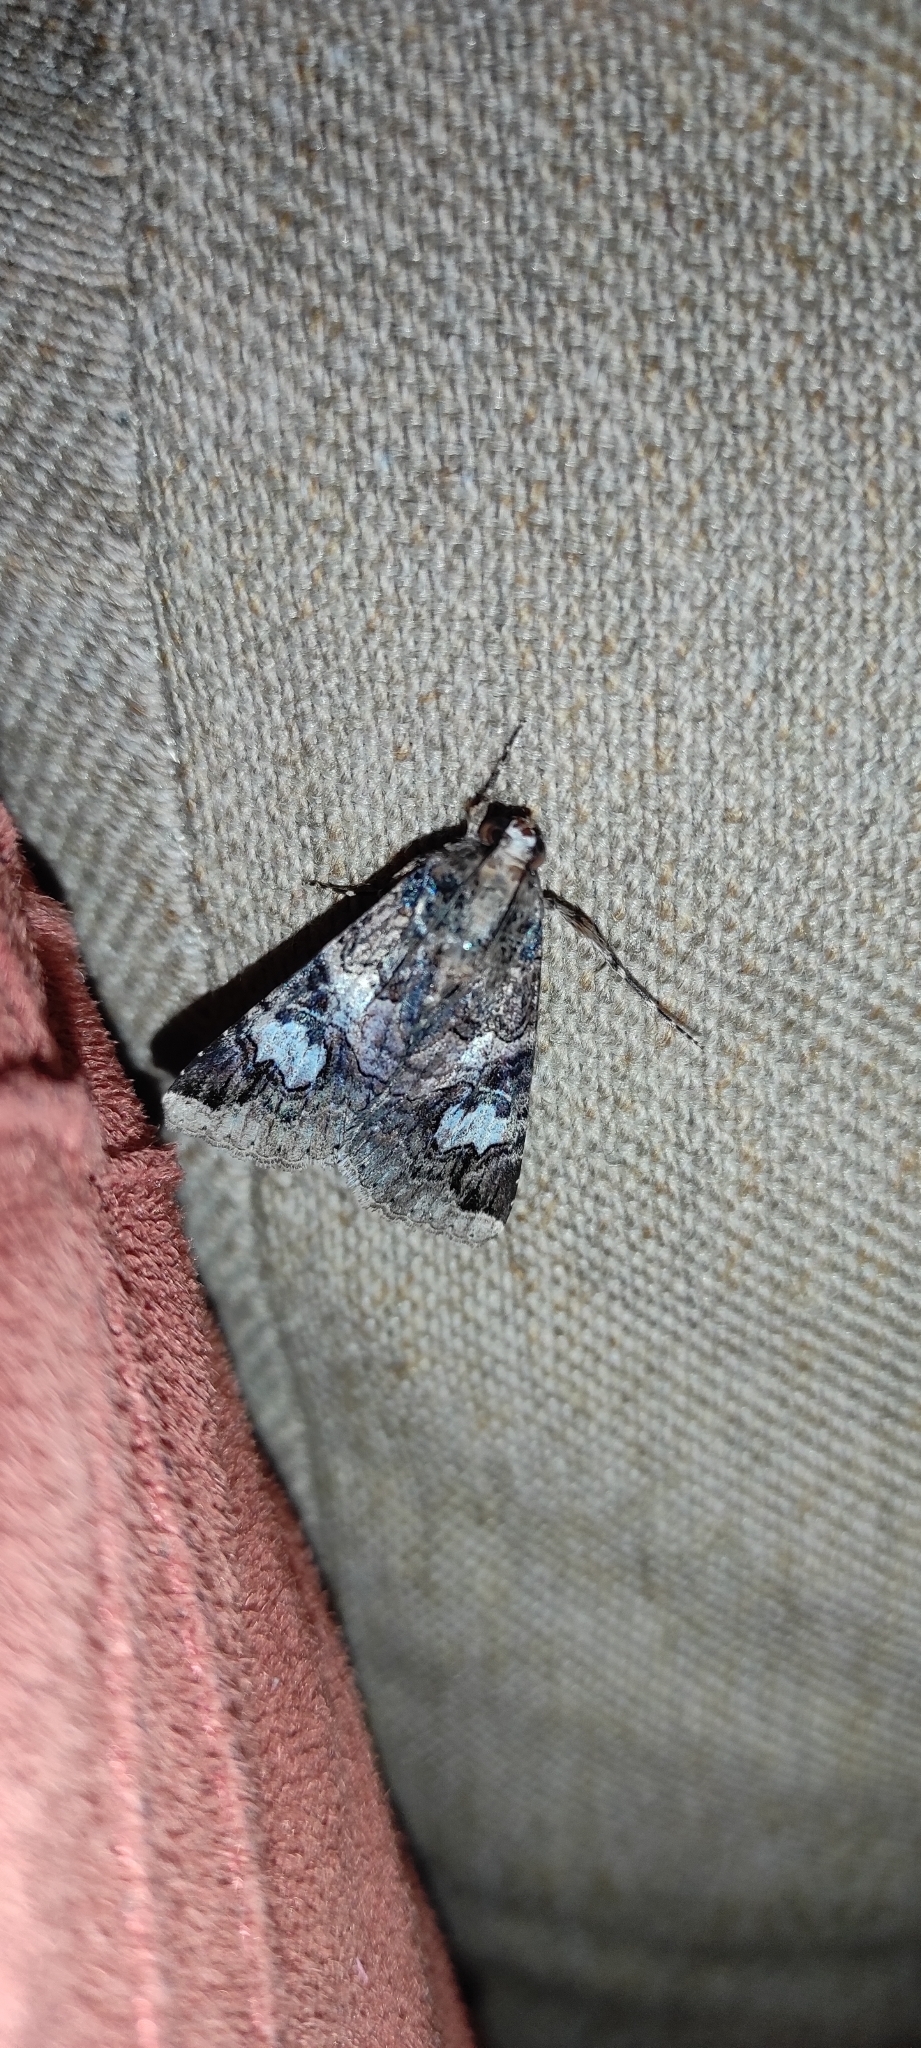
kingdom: Animalia
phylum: Arthropoda
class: Insecta
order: Lepidoptera
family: Erebidae
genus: Melipotis
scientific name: Melipotis famelica
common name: Famelica melipotis moth
